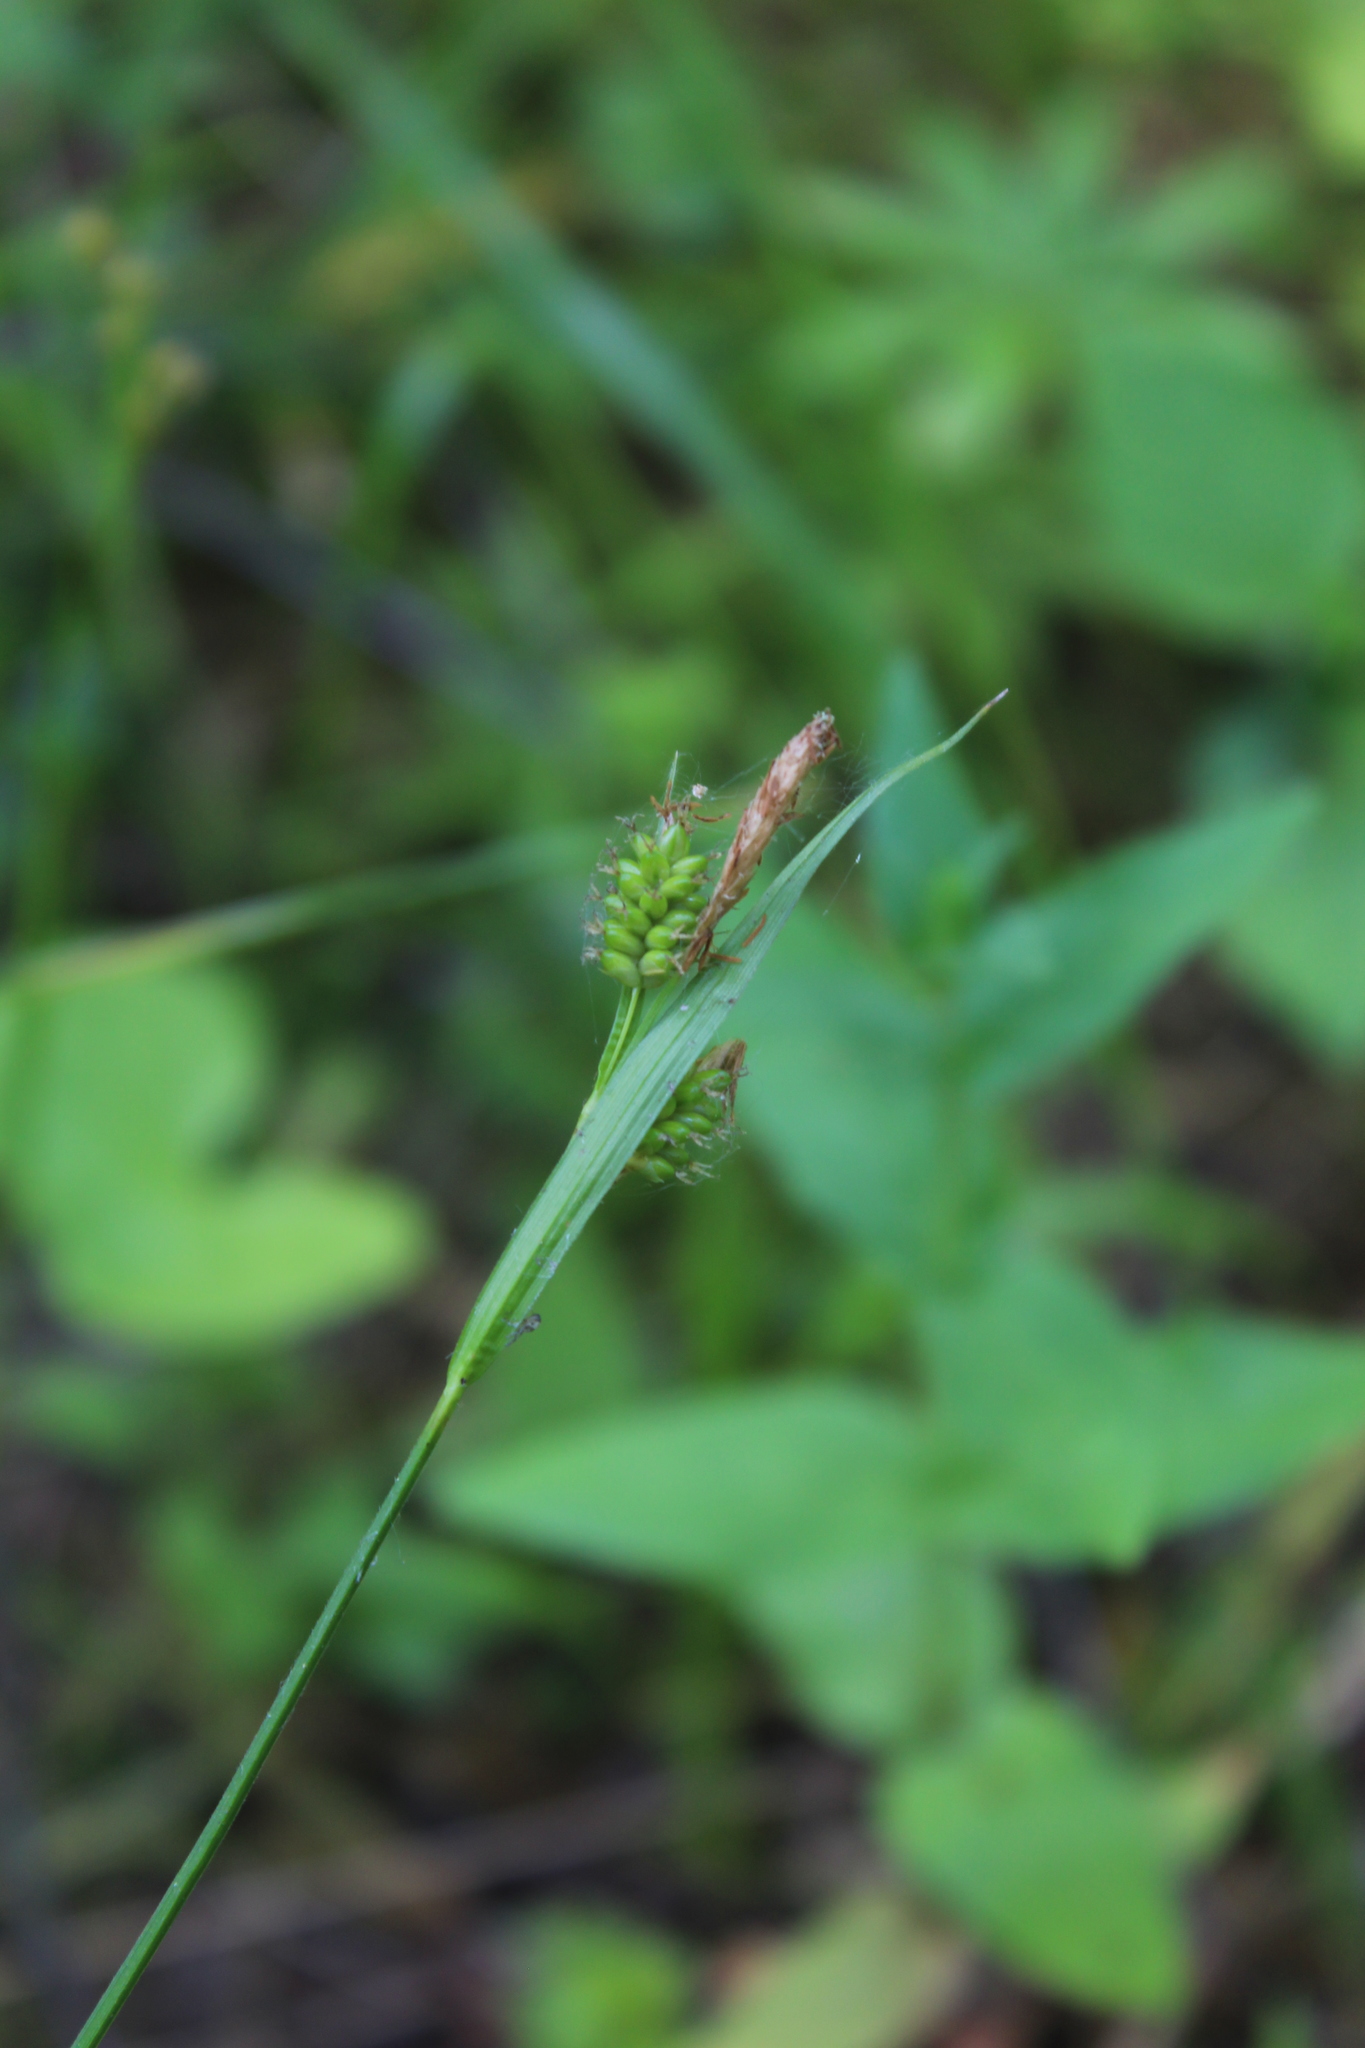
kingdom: Plantae
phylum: Tracheophyta
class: Liliopsida
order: Poales
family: Cyperaceae
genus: Carex
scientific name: Carex pallescens
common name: Pale sedge
